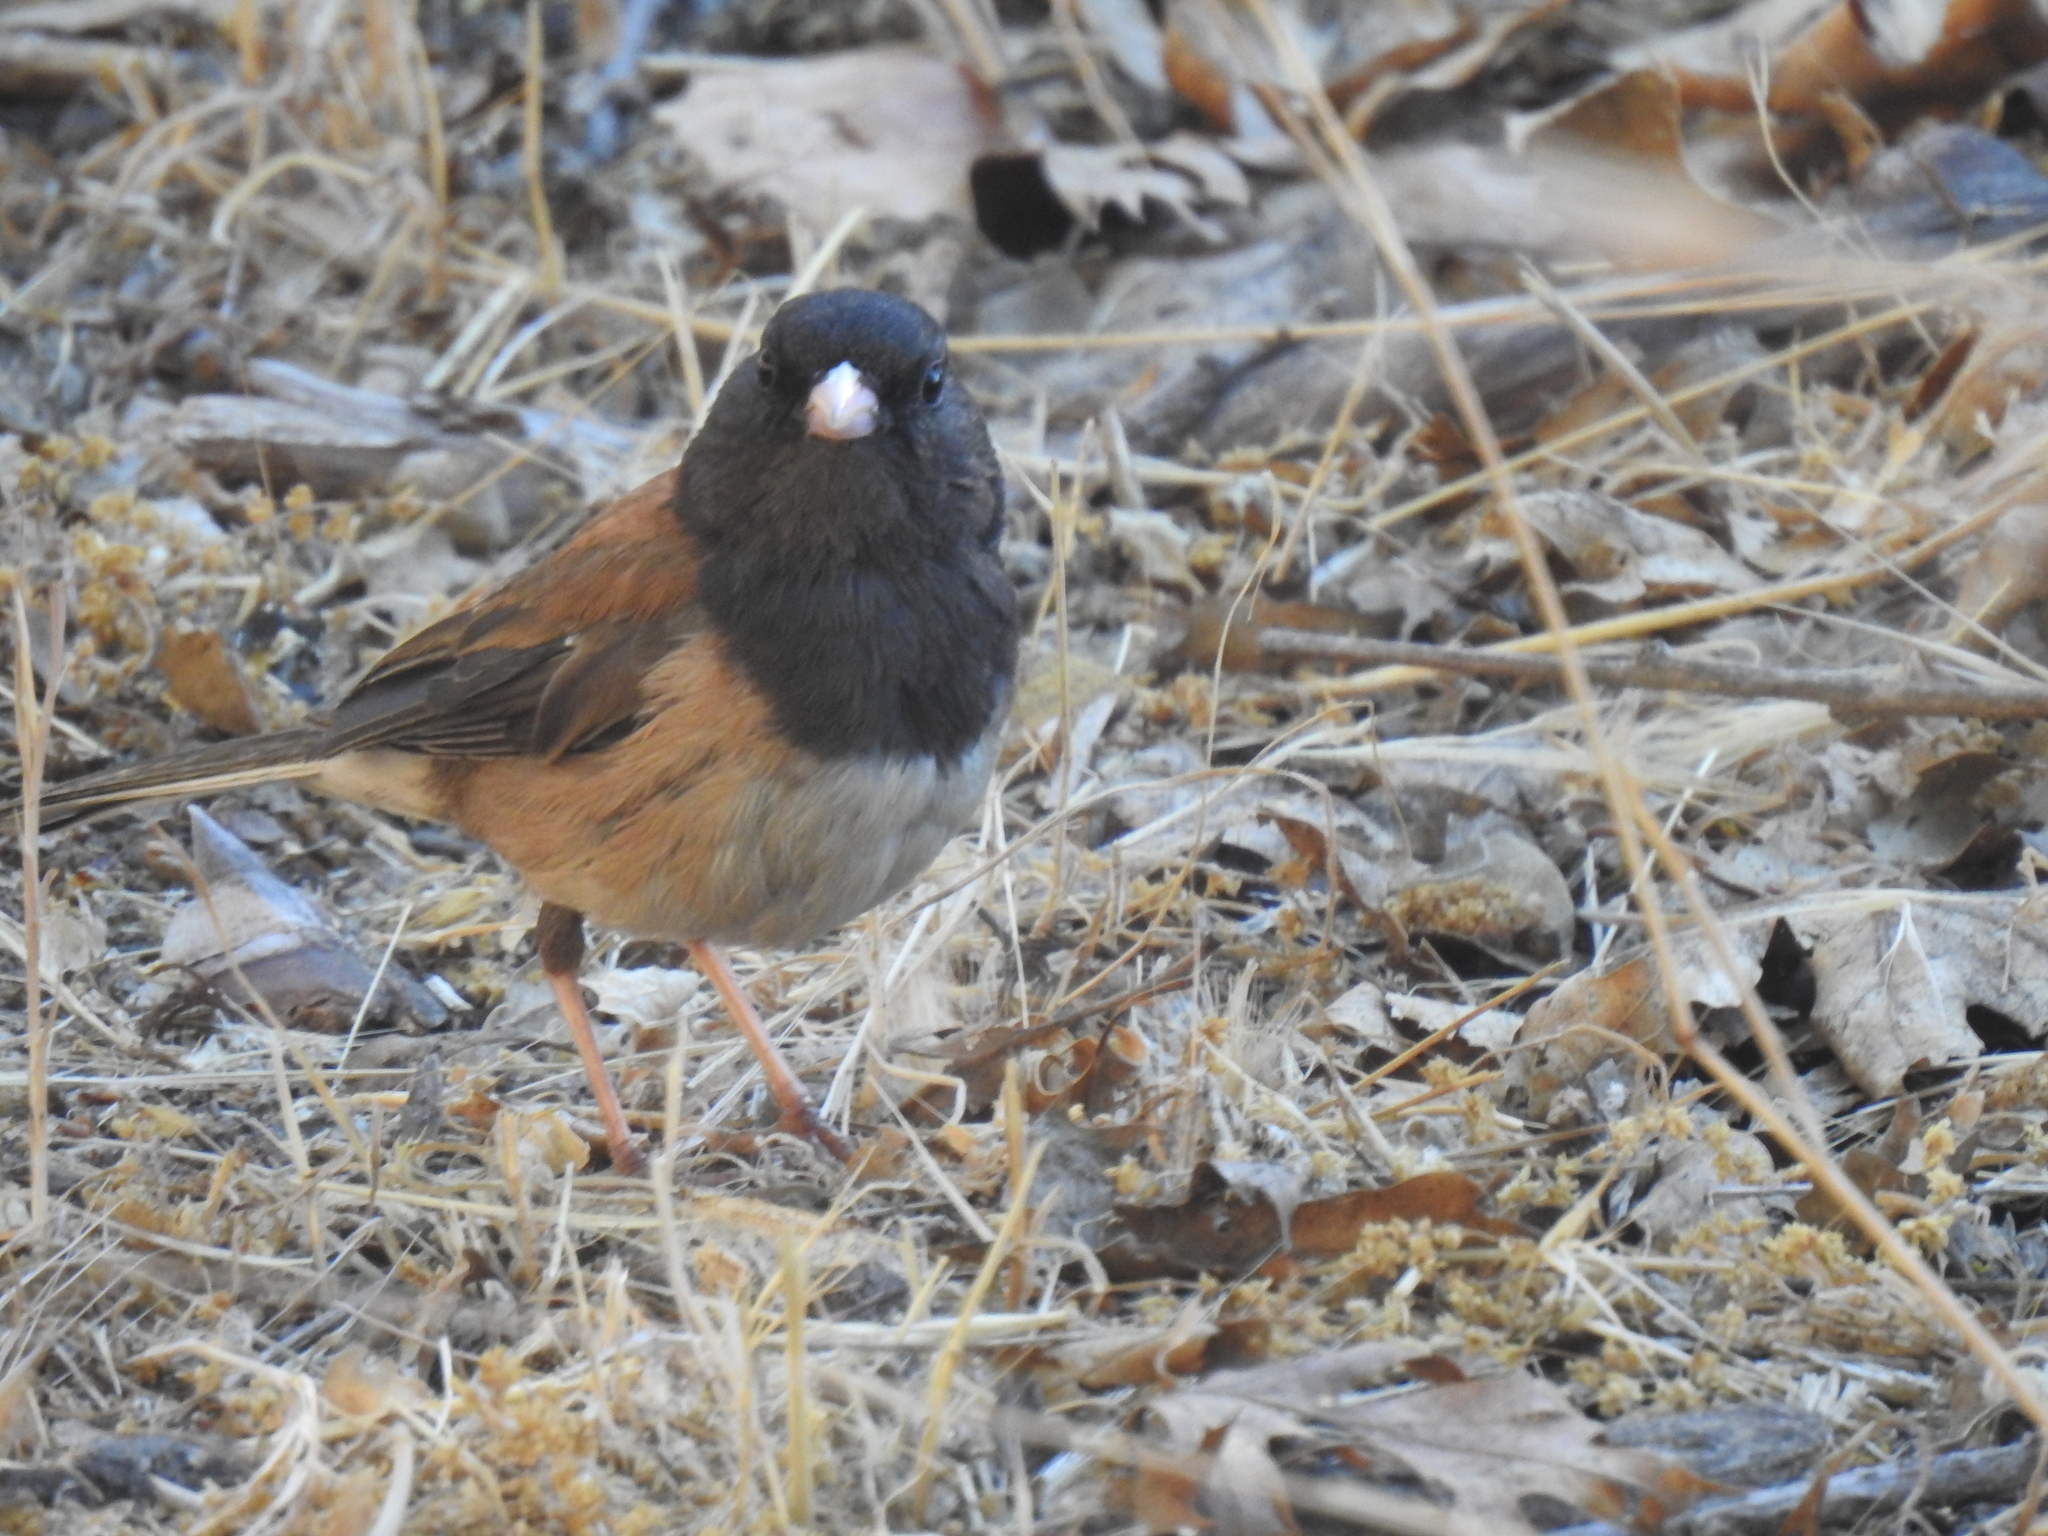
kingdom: Animalia
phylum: Chordata
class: Aves
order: Passeriformes
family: Passerellidae
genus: Junco
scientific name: Junco hyemalis
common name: Dark-eyed junco
